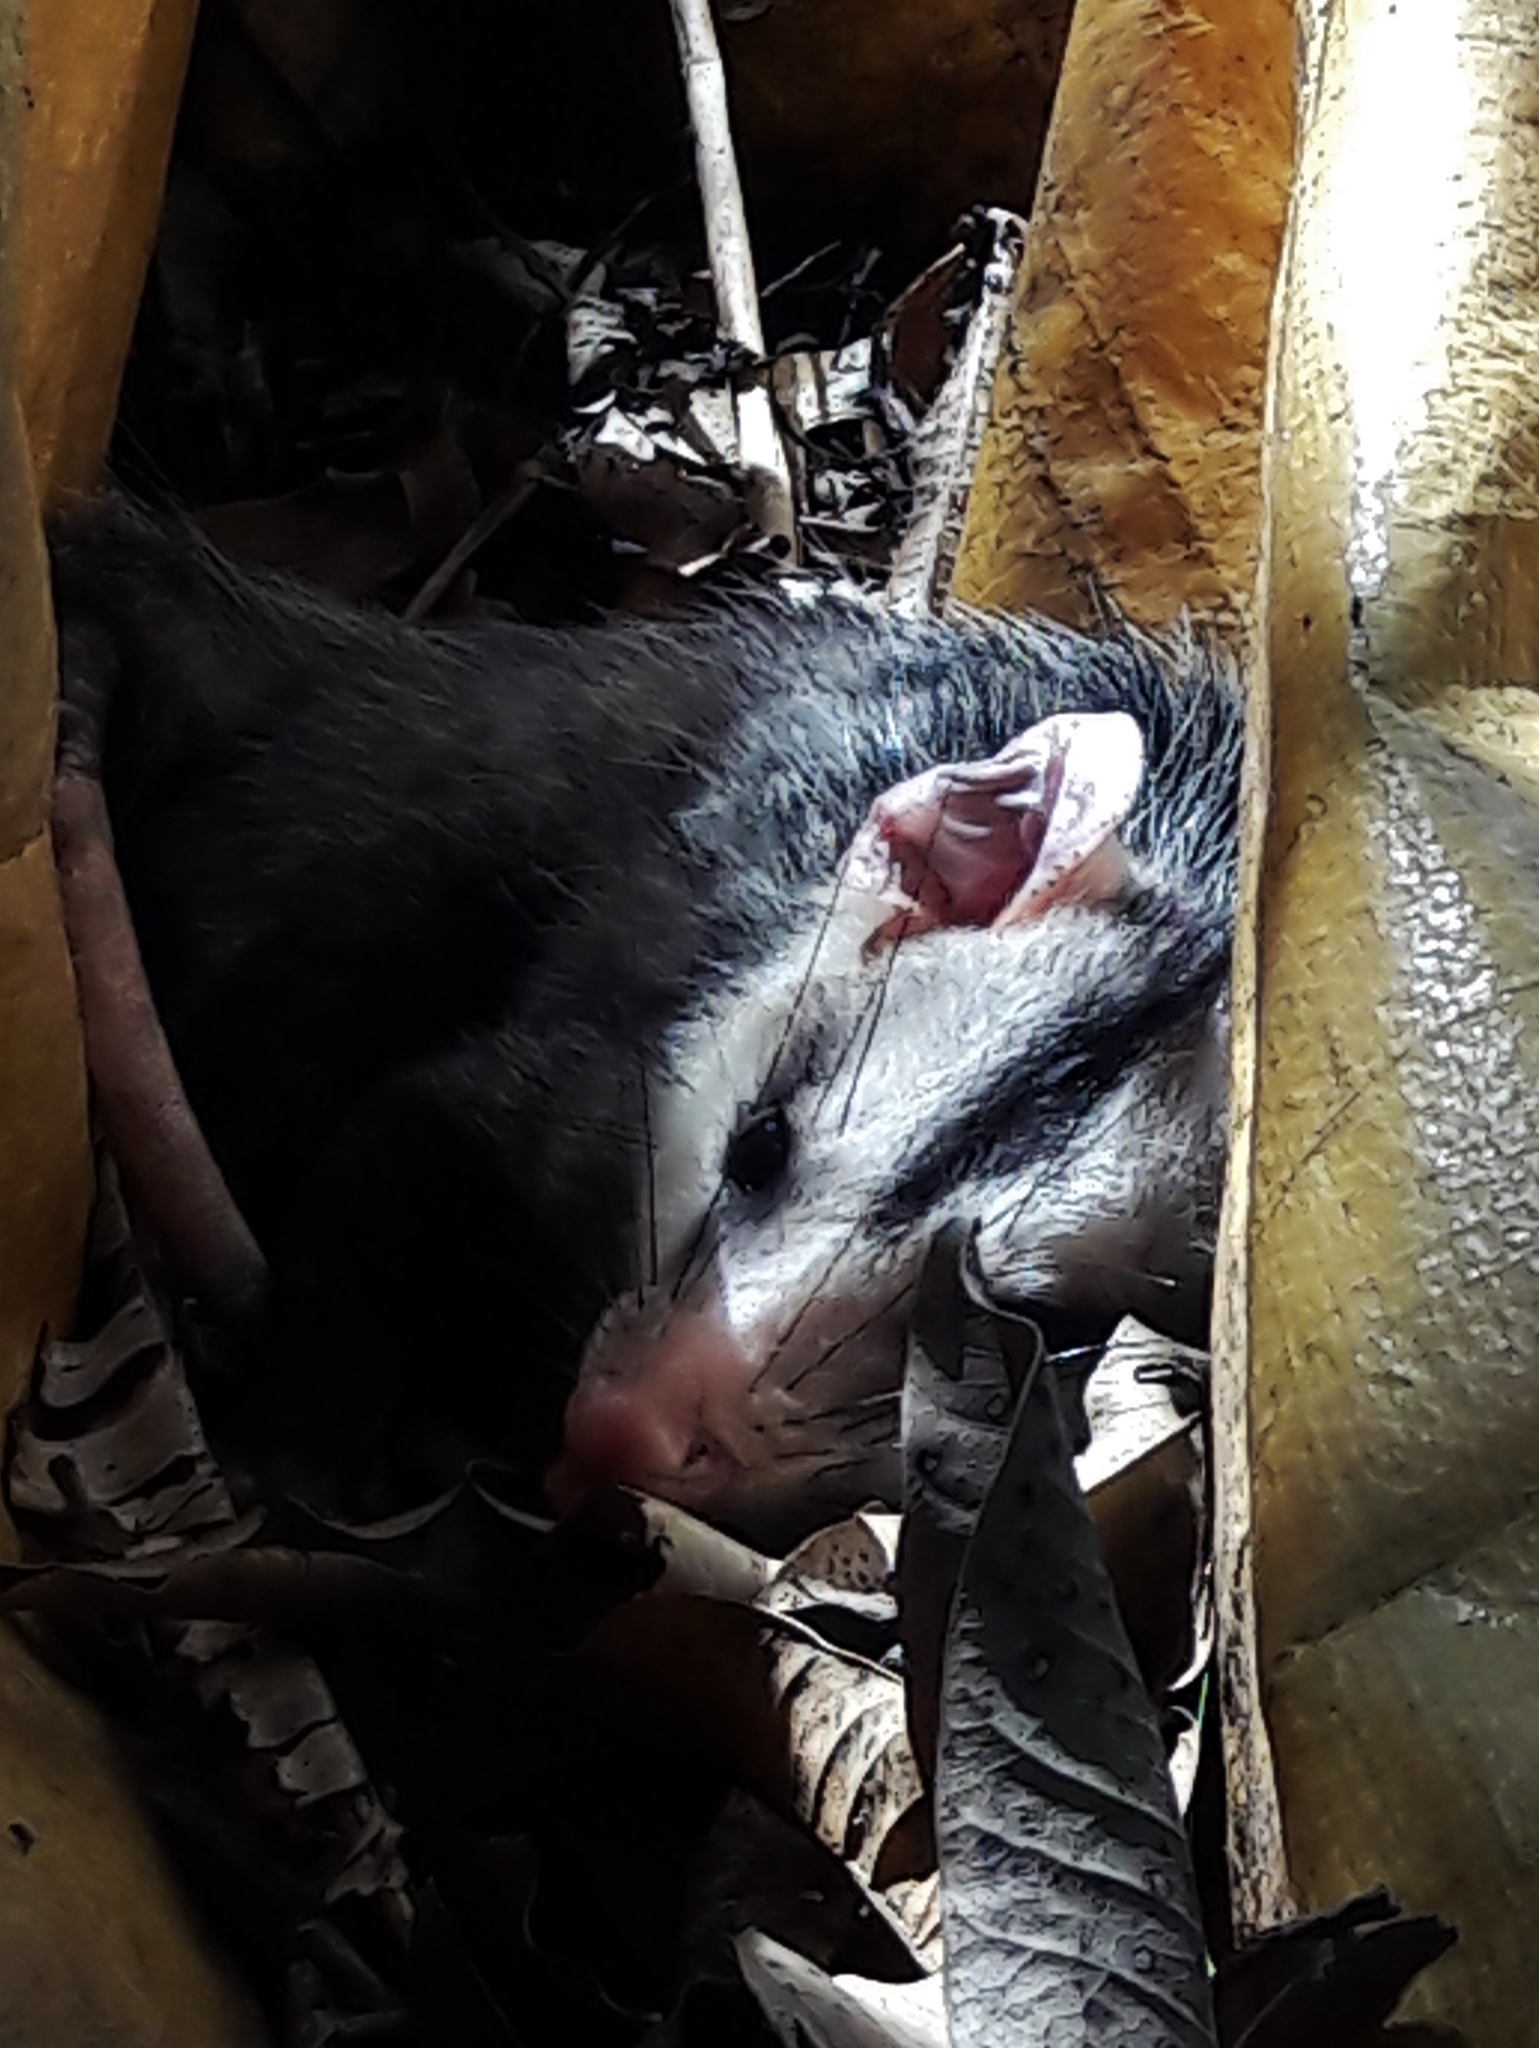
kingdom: Animalia
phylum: Chordata
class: Mammalia
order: Didelphimorphia
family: Didelphidae
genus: Didelphis
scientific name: Didelphis albiventris
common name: White-eared opossum
